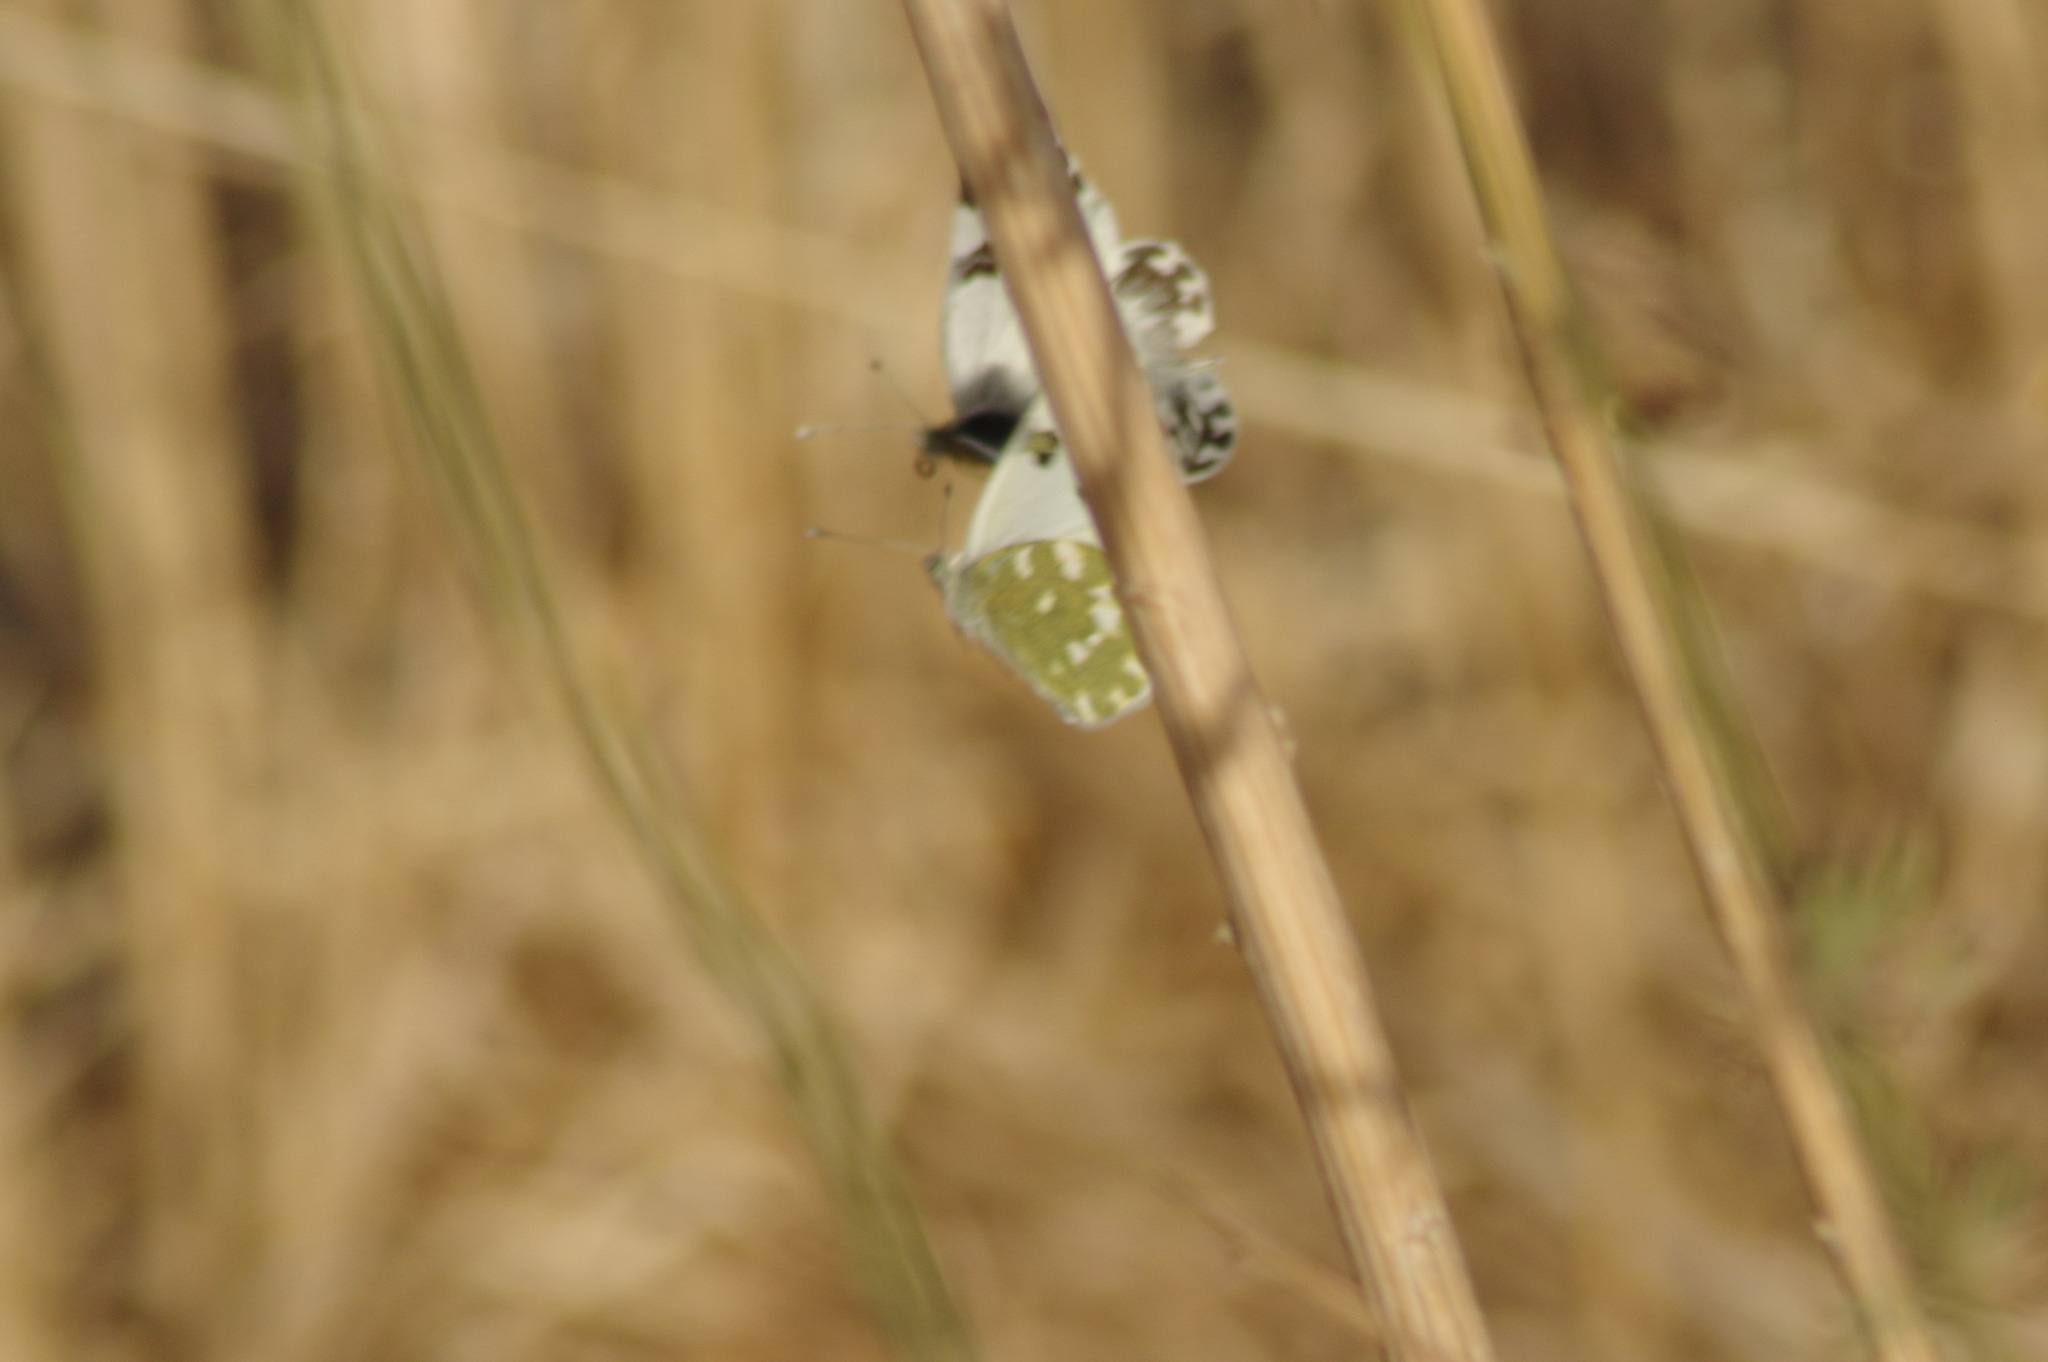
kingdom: Animalia
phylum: Arthropoda
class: Insecta
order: Lepidoptera
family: Pieridae
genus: Pontia
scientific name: Pontia daplidice
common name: Bath white
